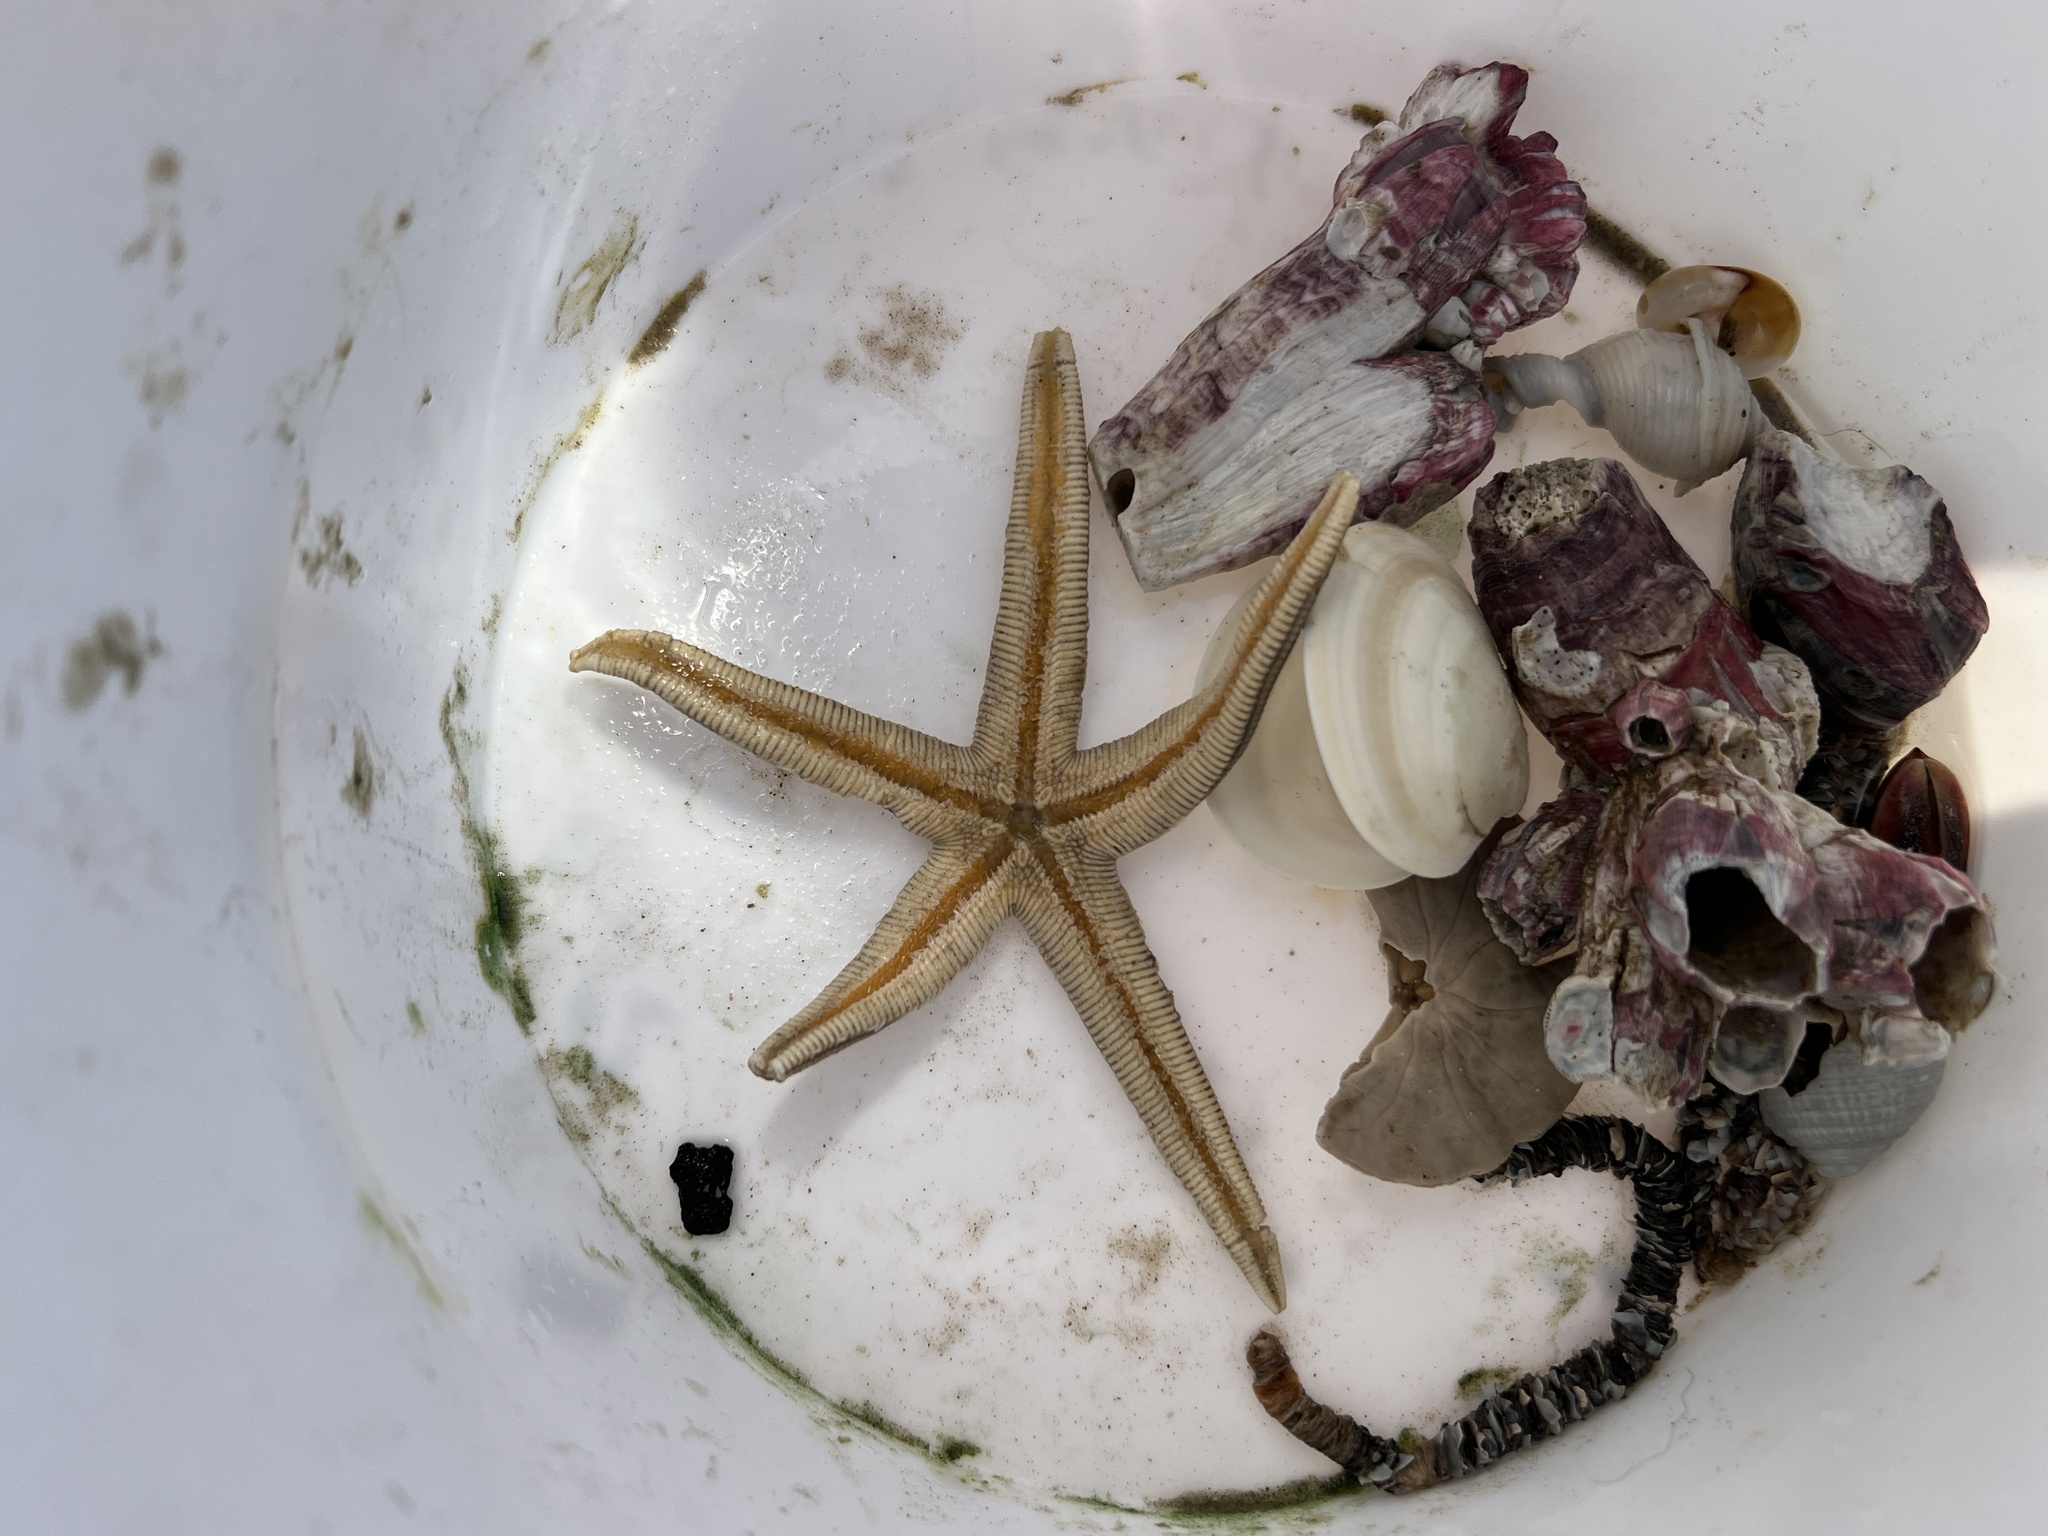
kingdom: Animalia
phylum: Echinodermata
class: Asteroidea
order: Paxillosida
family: Luidiidae
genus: Luidia
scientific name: Luidia clathrata
